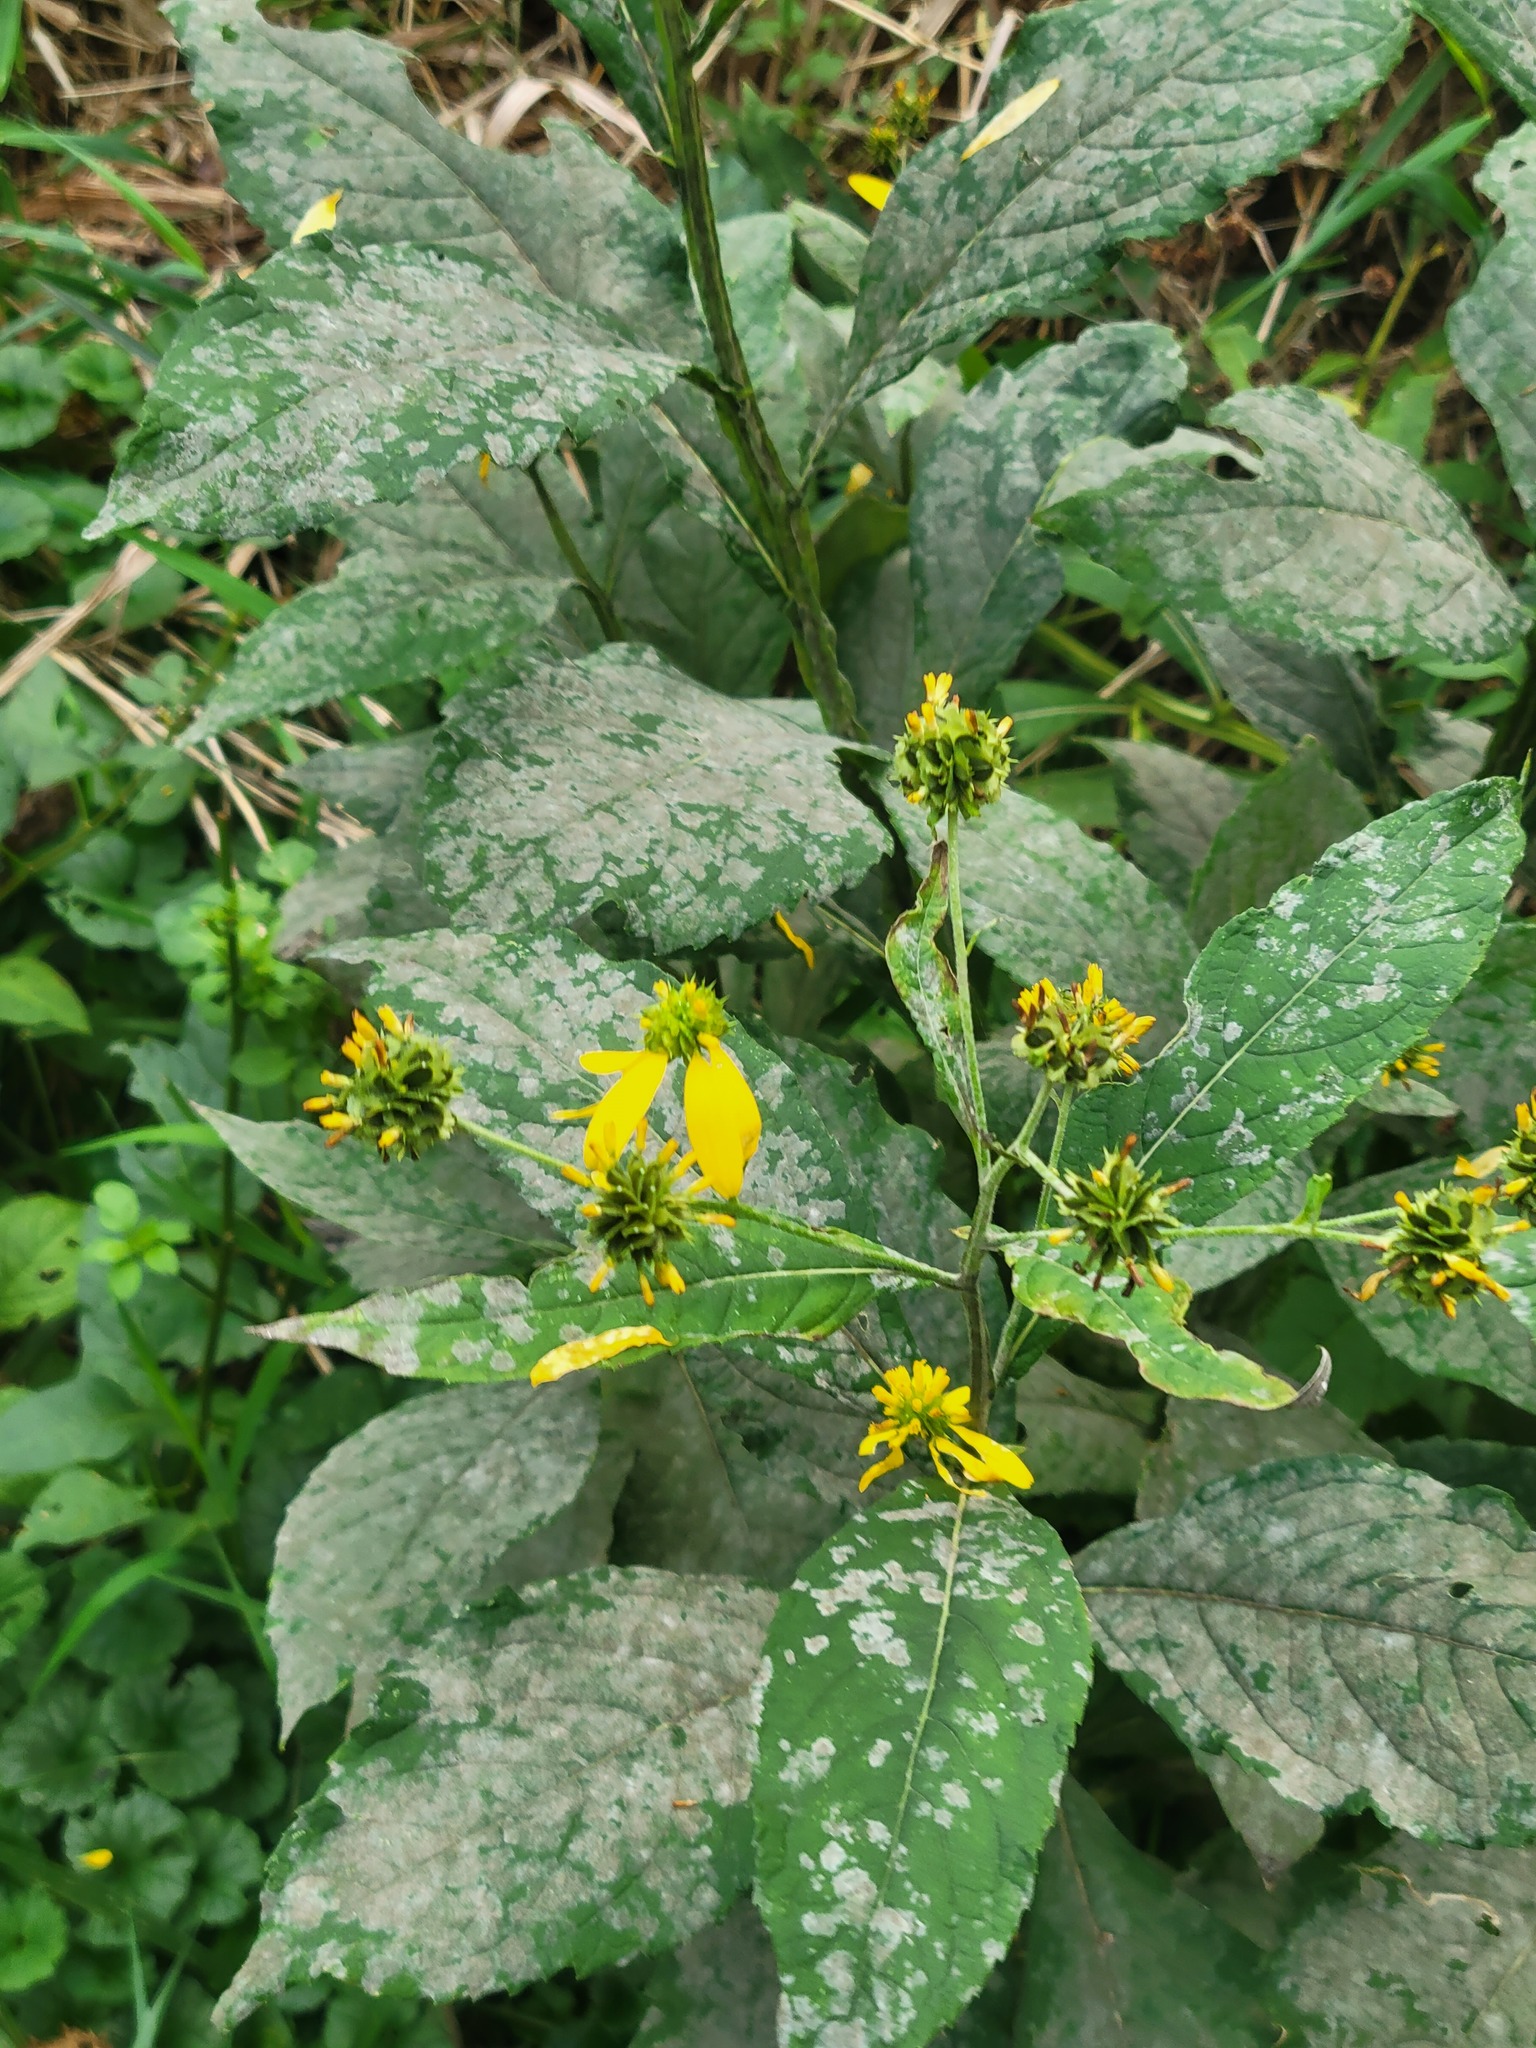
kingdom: Plantae
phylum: Tracheophyta
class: Magnoliopsida
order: Asterales
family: Asteraceae
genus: Verbesina
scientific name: Verbesina alternifolia
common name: Wingstem
